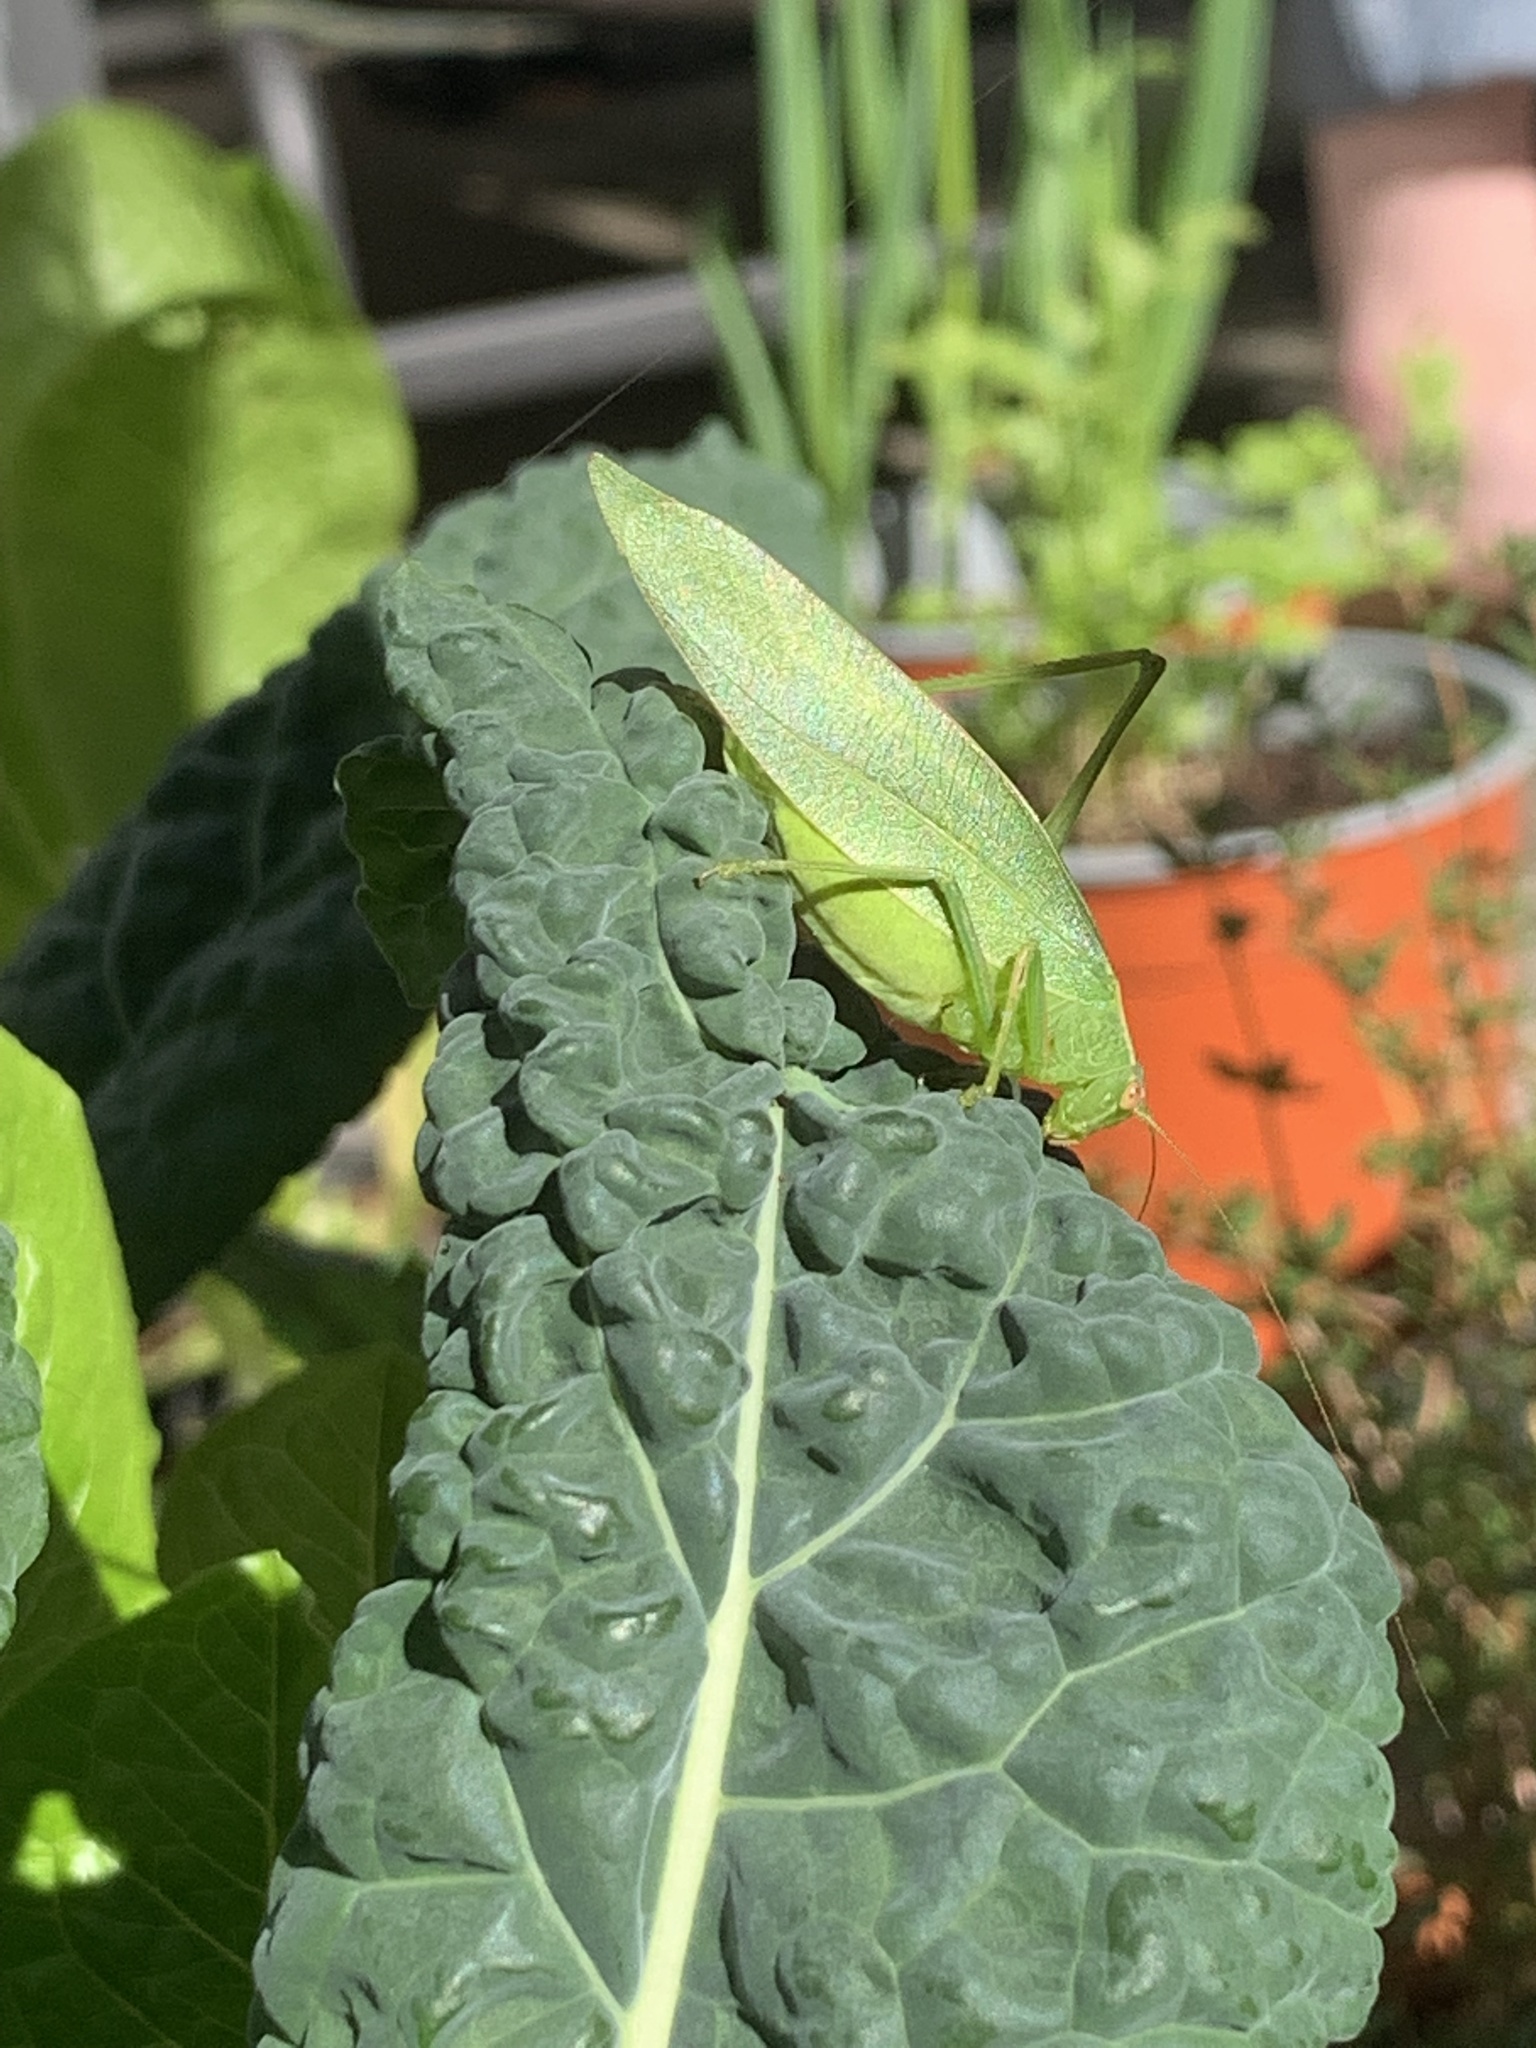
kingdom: Animalia
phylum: Arthropoda
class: Insecta
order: Orthoptera
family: Tettigoniidae
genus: Caedicia
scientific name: Caedicia simplex
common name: Common garden katydid
